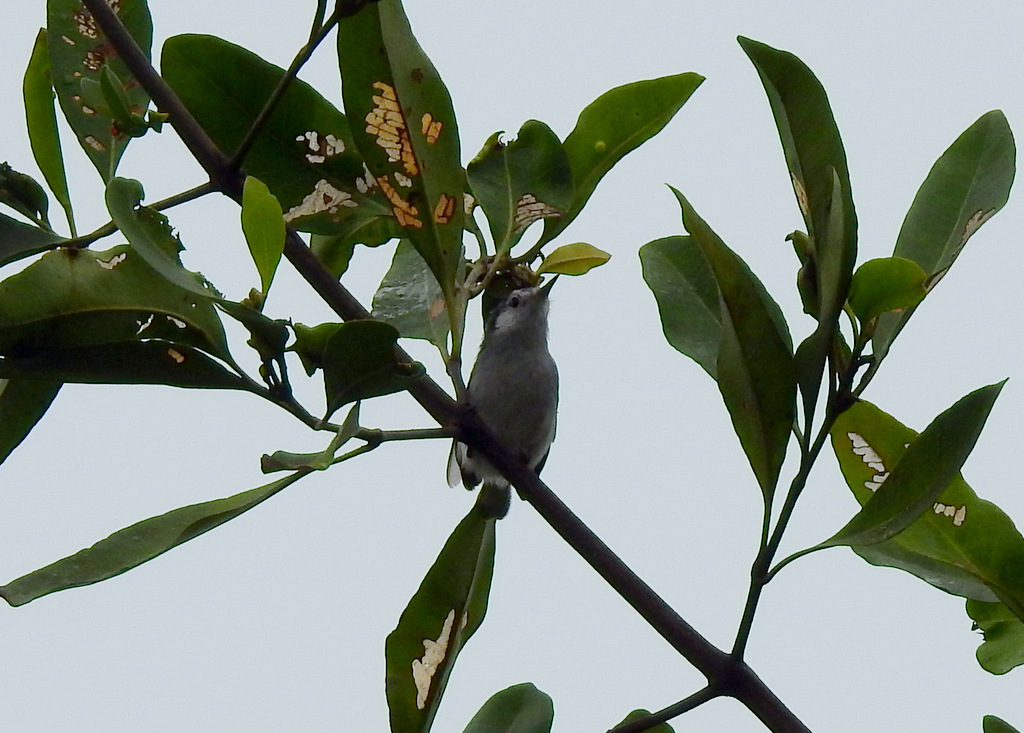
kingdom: Animalia
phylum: Chordata
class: Aves
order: Passeriformes
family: Polioptilidae
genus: Polioptila
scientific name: Polioptila plumbea
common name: Tropical gnatcatcher
